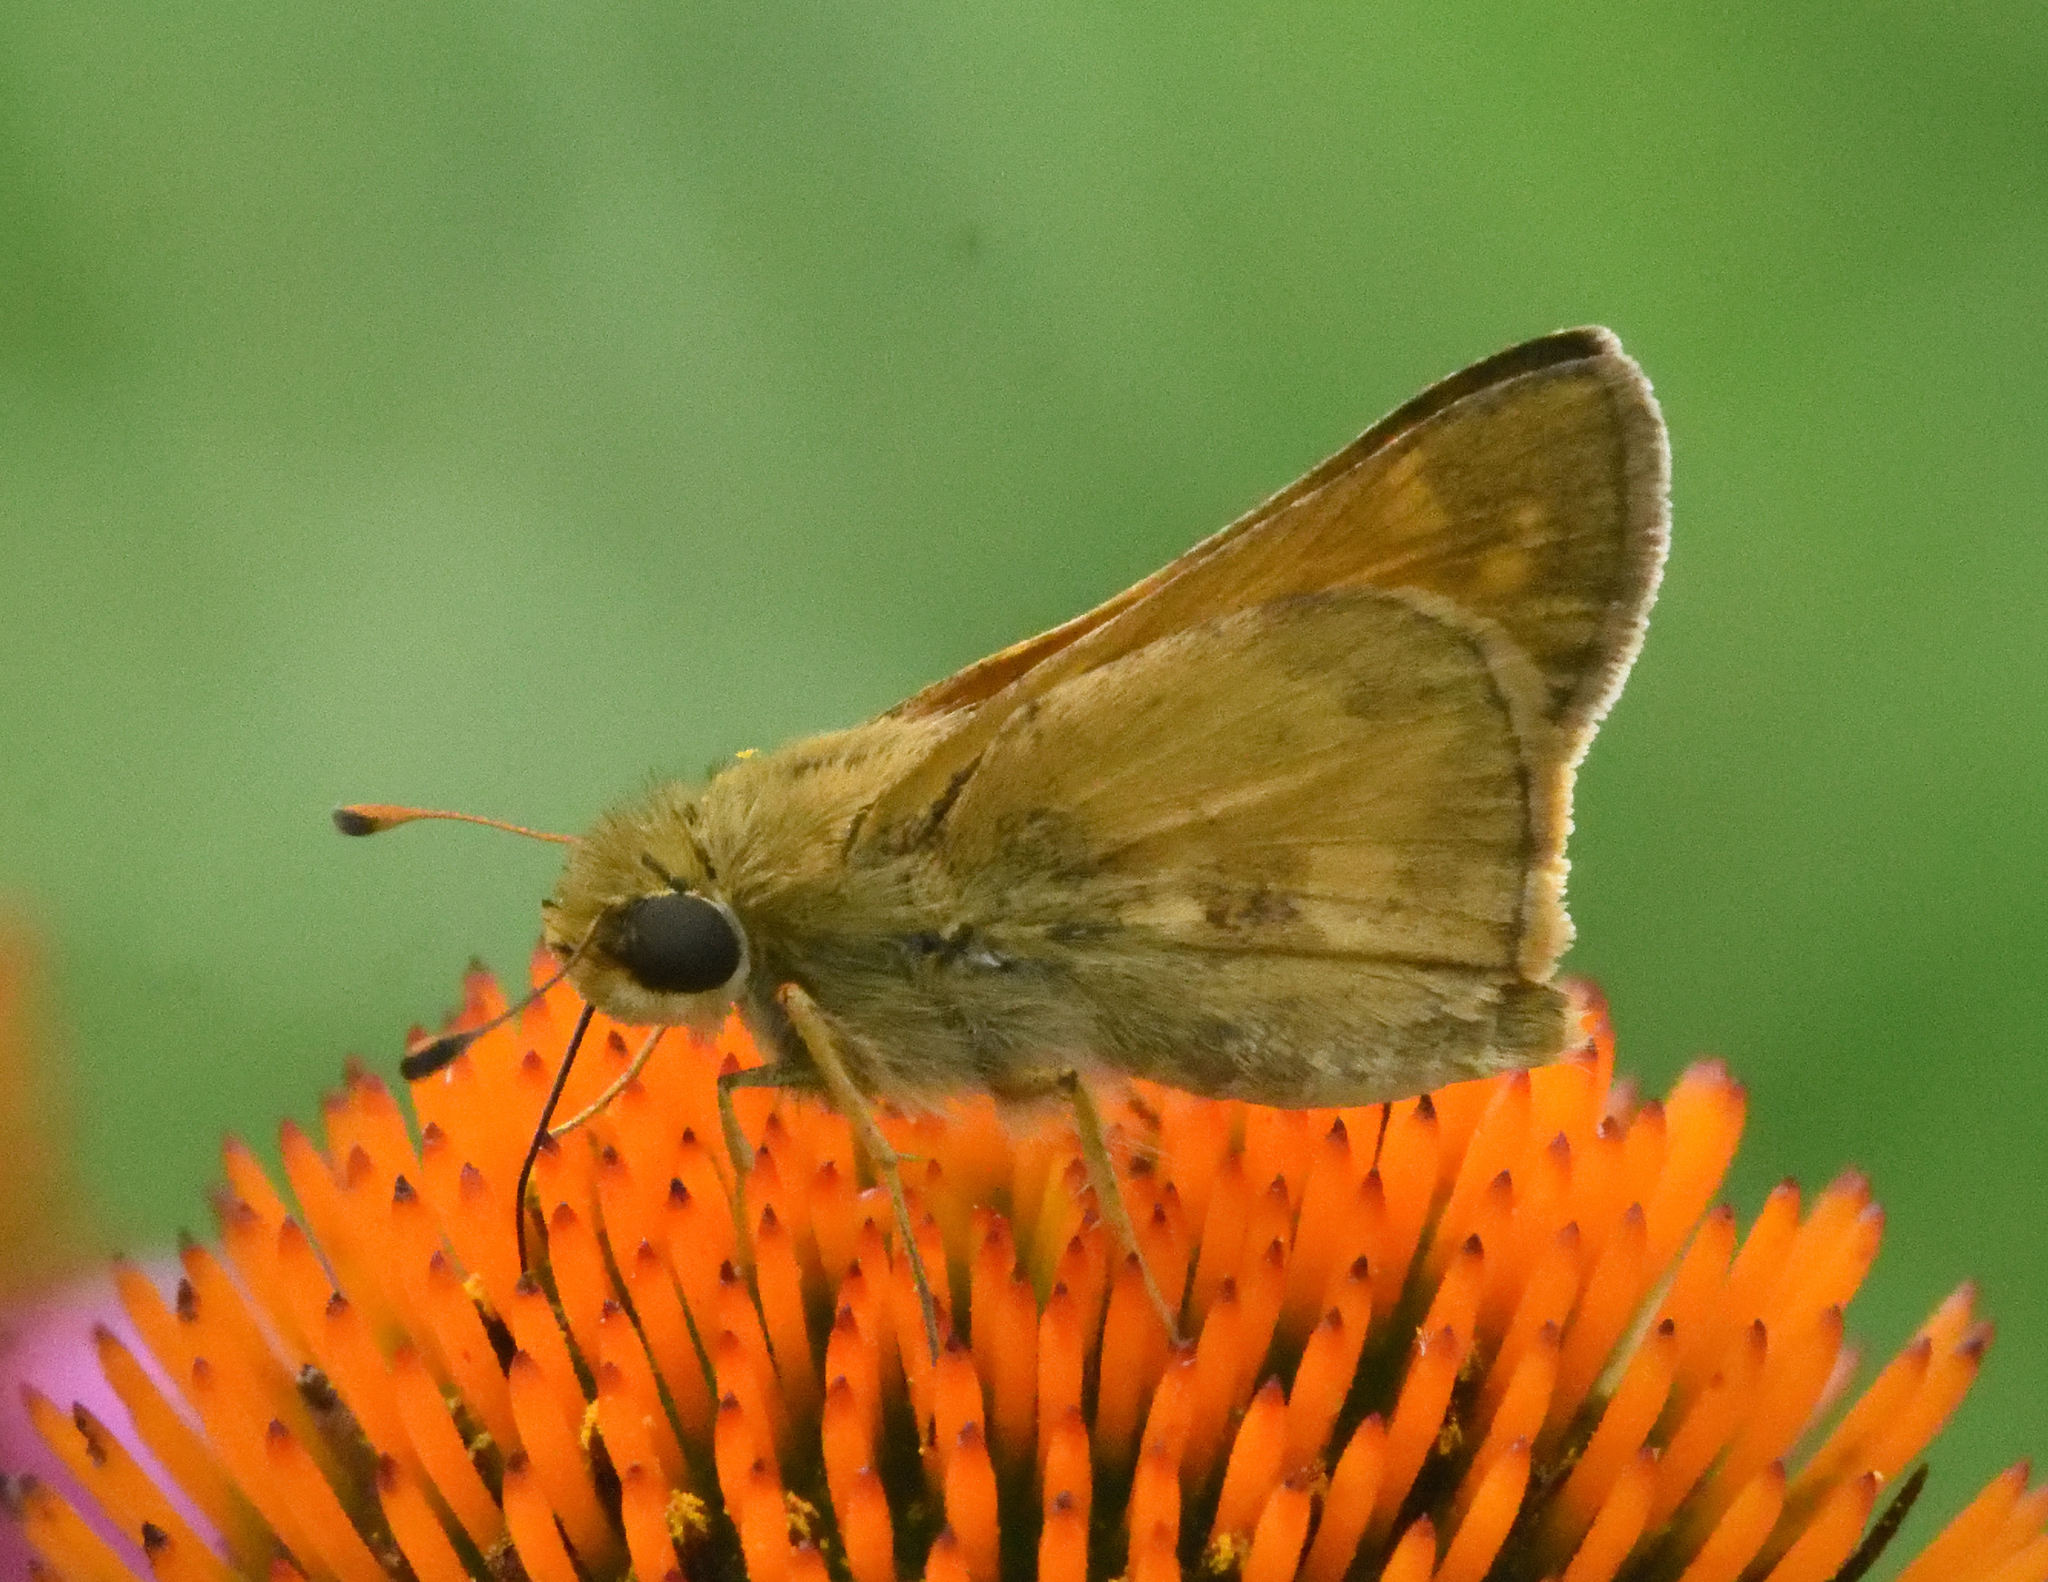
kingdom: Animalia
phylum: Arthropoda
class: Insecta
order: Lepidoptera
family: Hesperiidae
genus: Atalopedes
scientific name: Atalopedes
